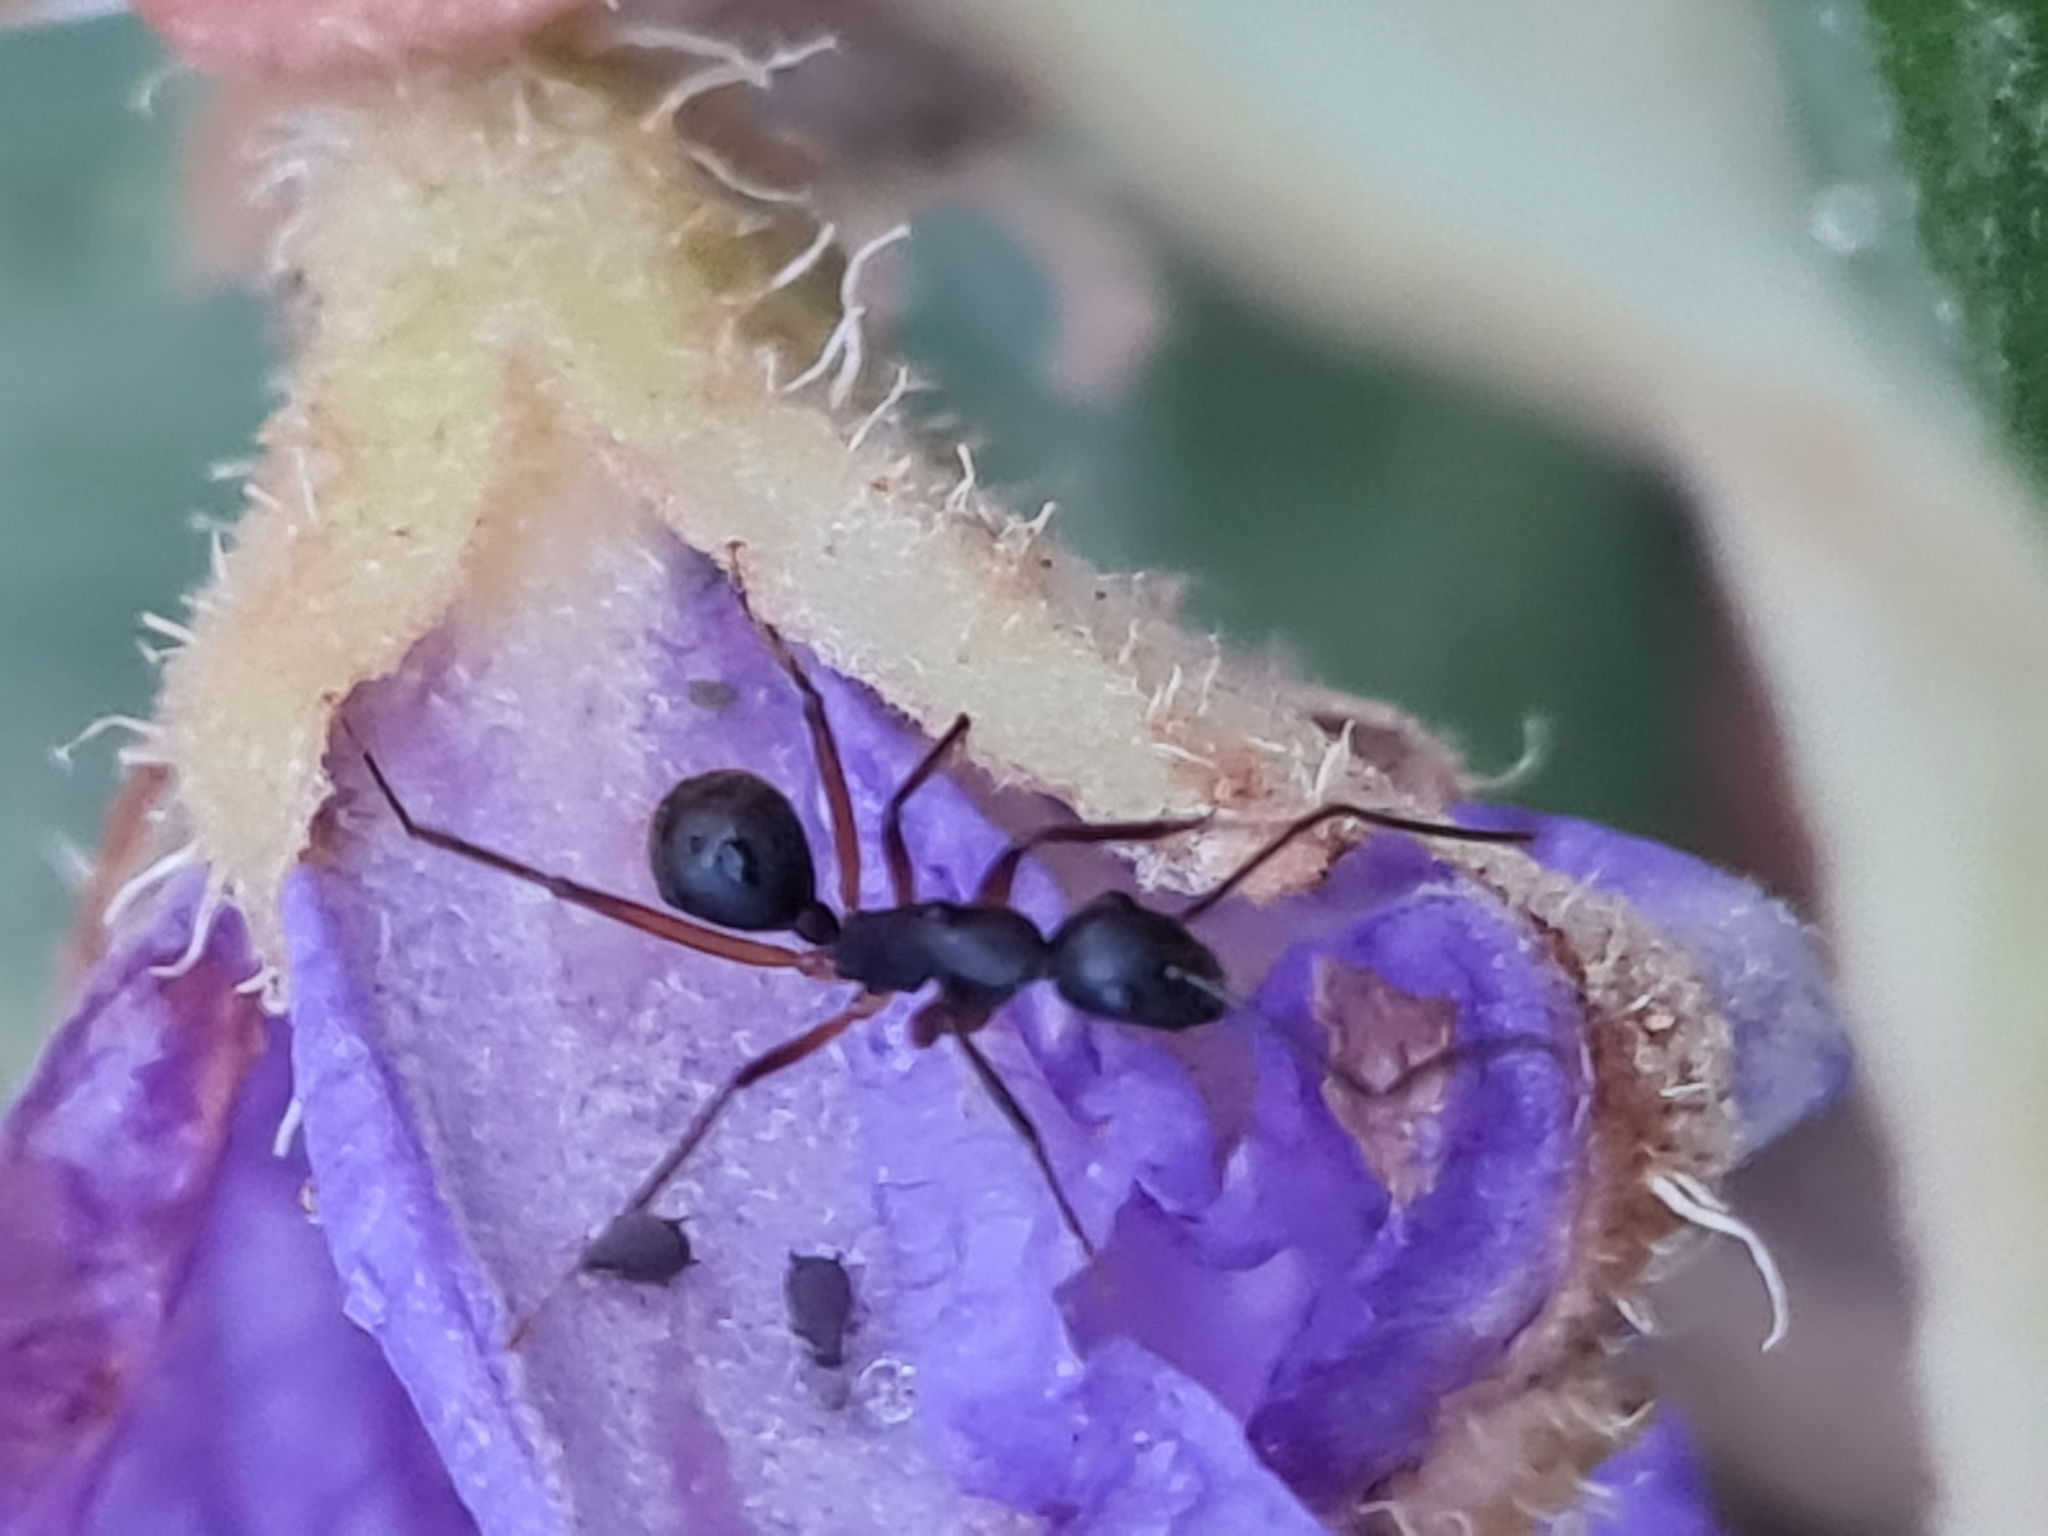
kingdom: Animalia
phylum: Arthropoda
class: Insecta
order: Hymenoptera
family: Formicidae
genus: Camponotus
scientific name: Camponotus
